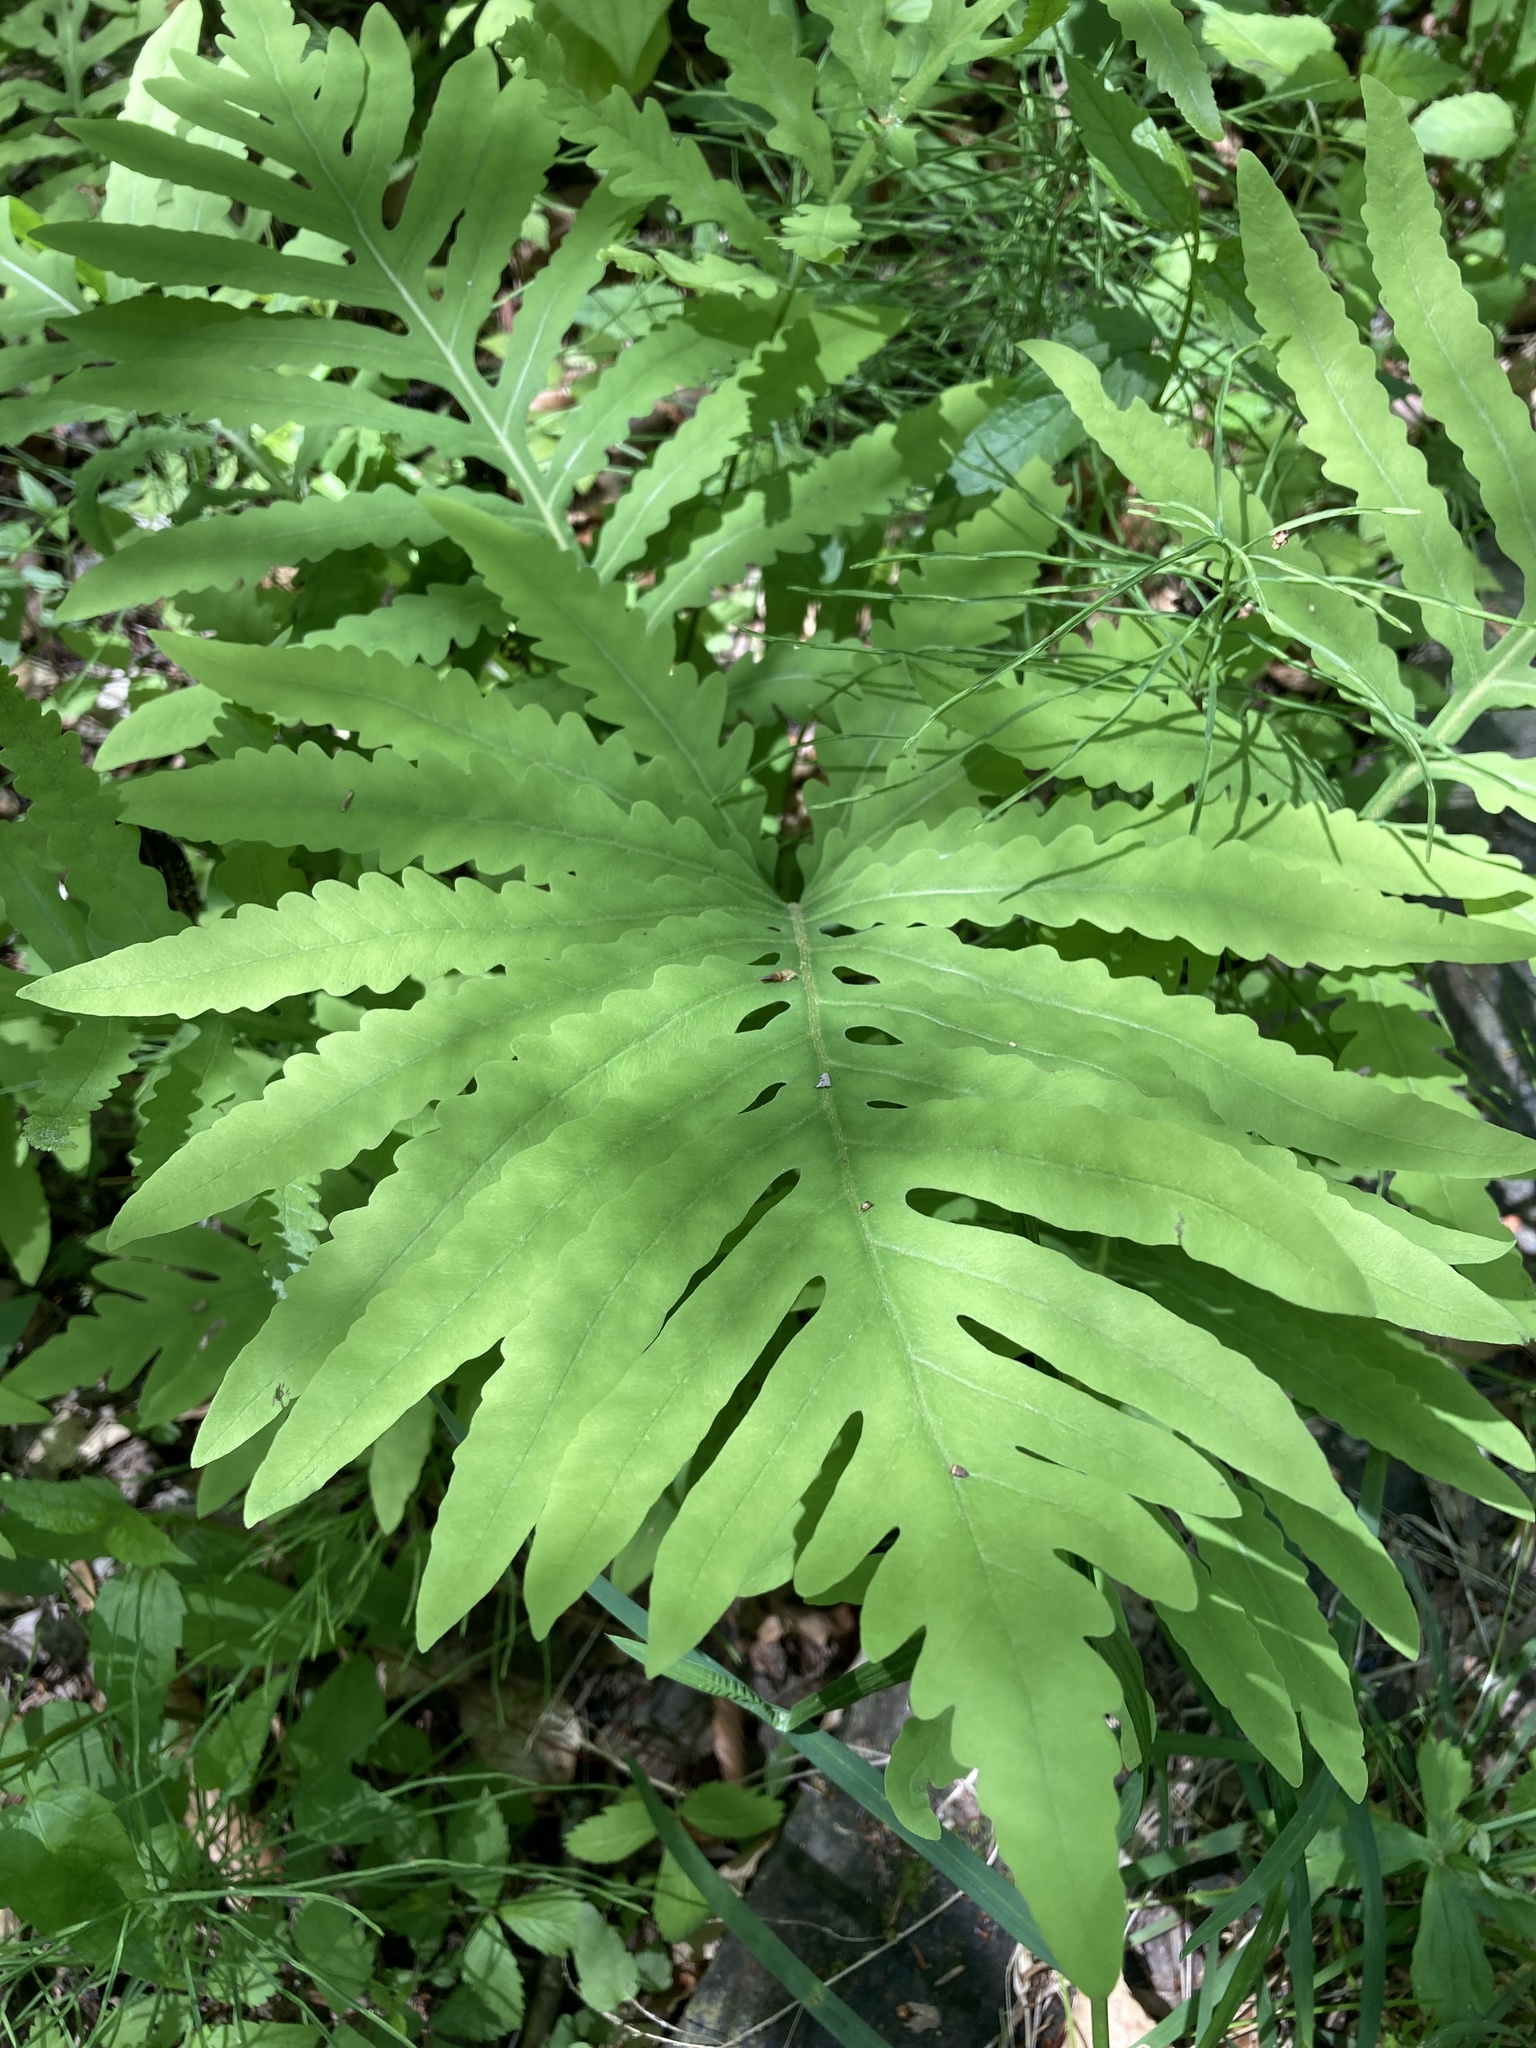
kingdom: Plantae
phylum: Tracheophyta
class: Polypodiopsida
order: Polypodiales
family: Onocleaceae
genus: Onoclea
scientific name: Onoclea sensibilis
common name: Sensitive fern
